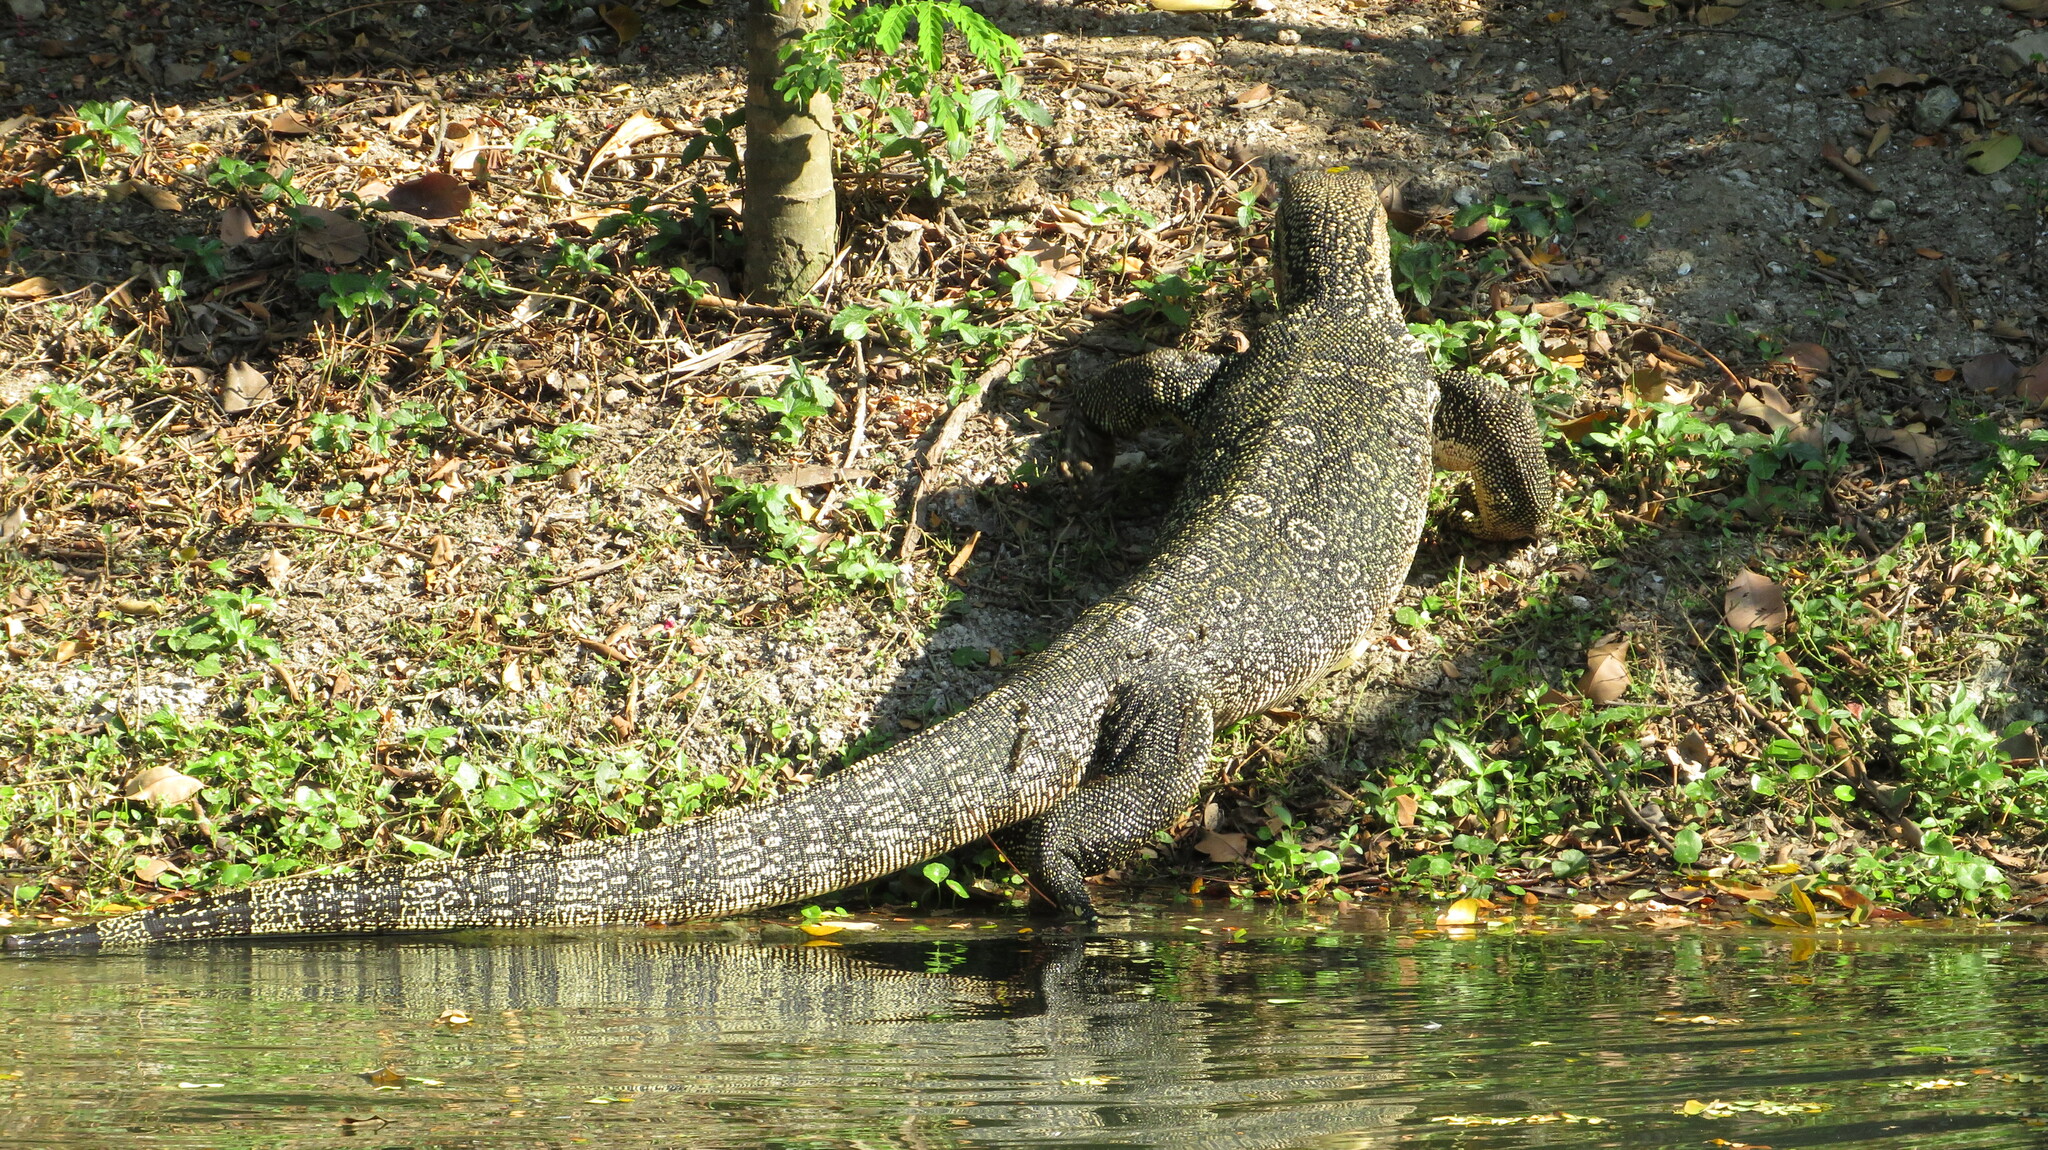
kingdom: Animalia
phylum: Chordata
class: Squamata
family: Varanidae
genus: Varanus
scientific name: Varanus salvator
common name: Common water monitor
